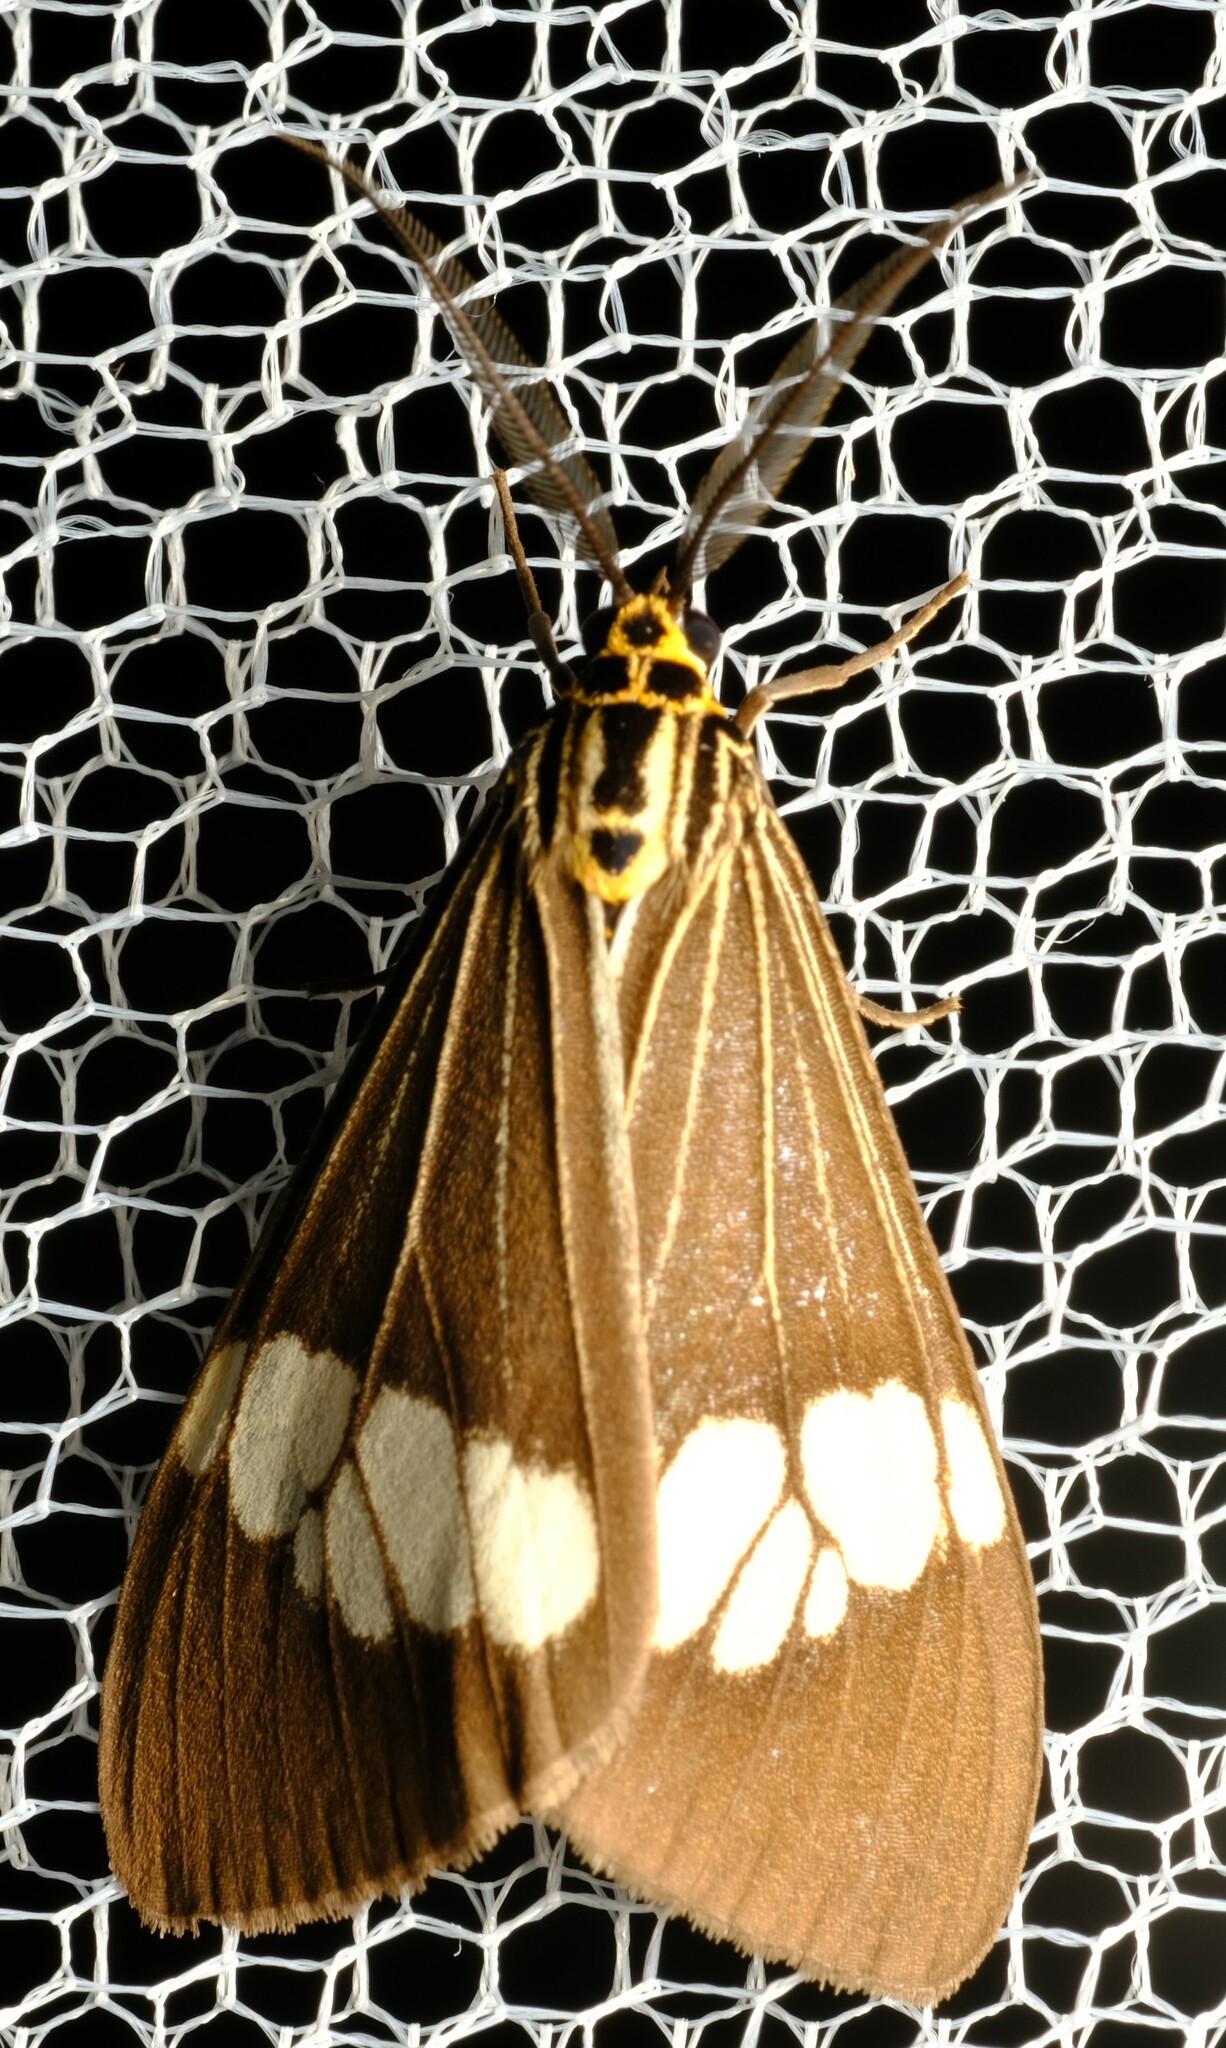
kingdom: Animalia
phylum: Arthropoda
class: Insecta
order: Lepidoptera
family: Erebidae
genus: Nyctemera
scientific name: Nyctemera baulus
